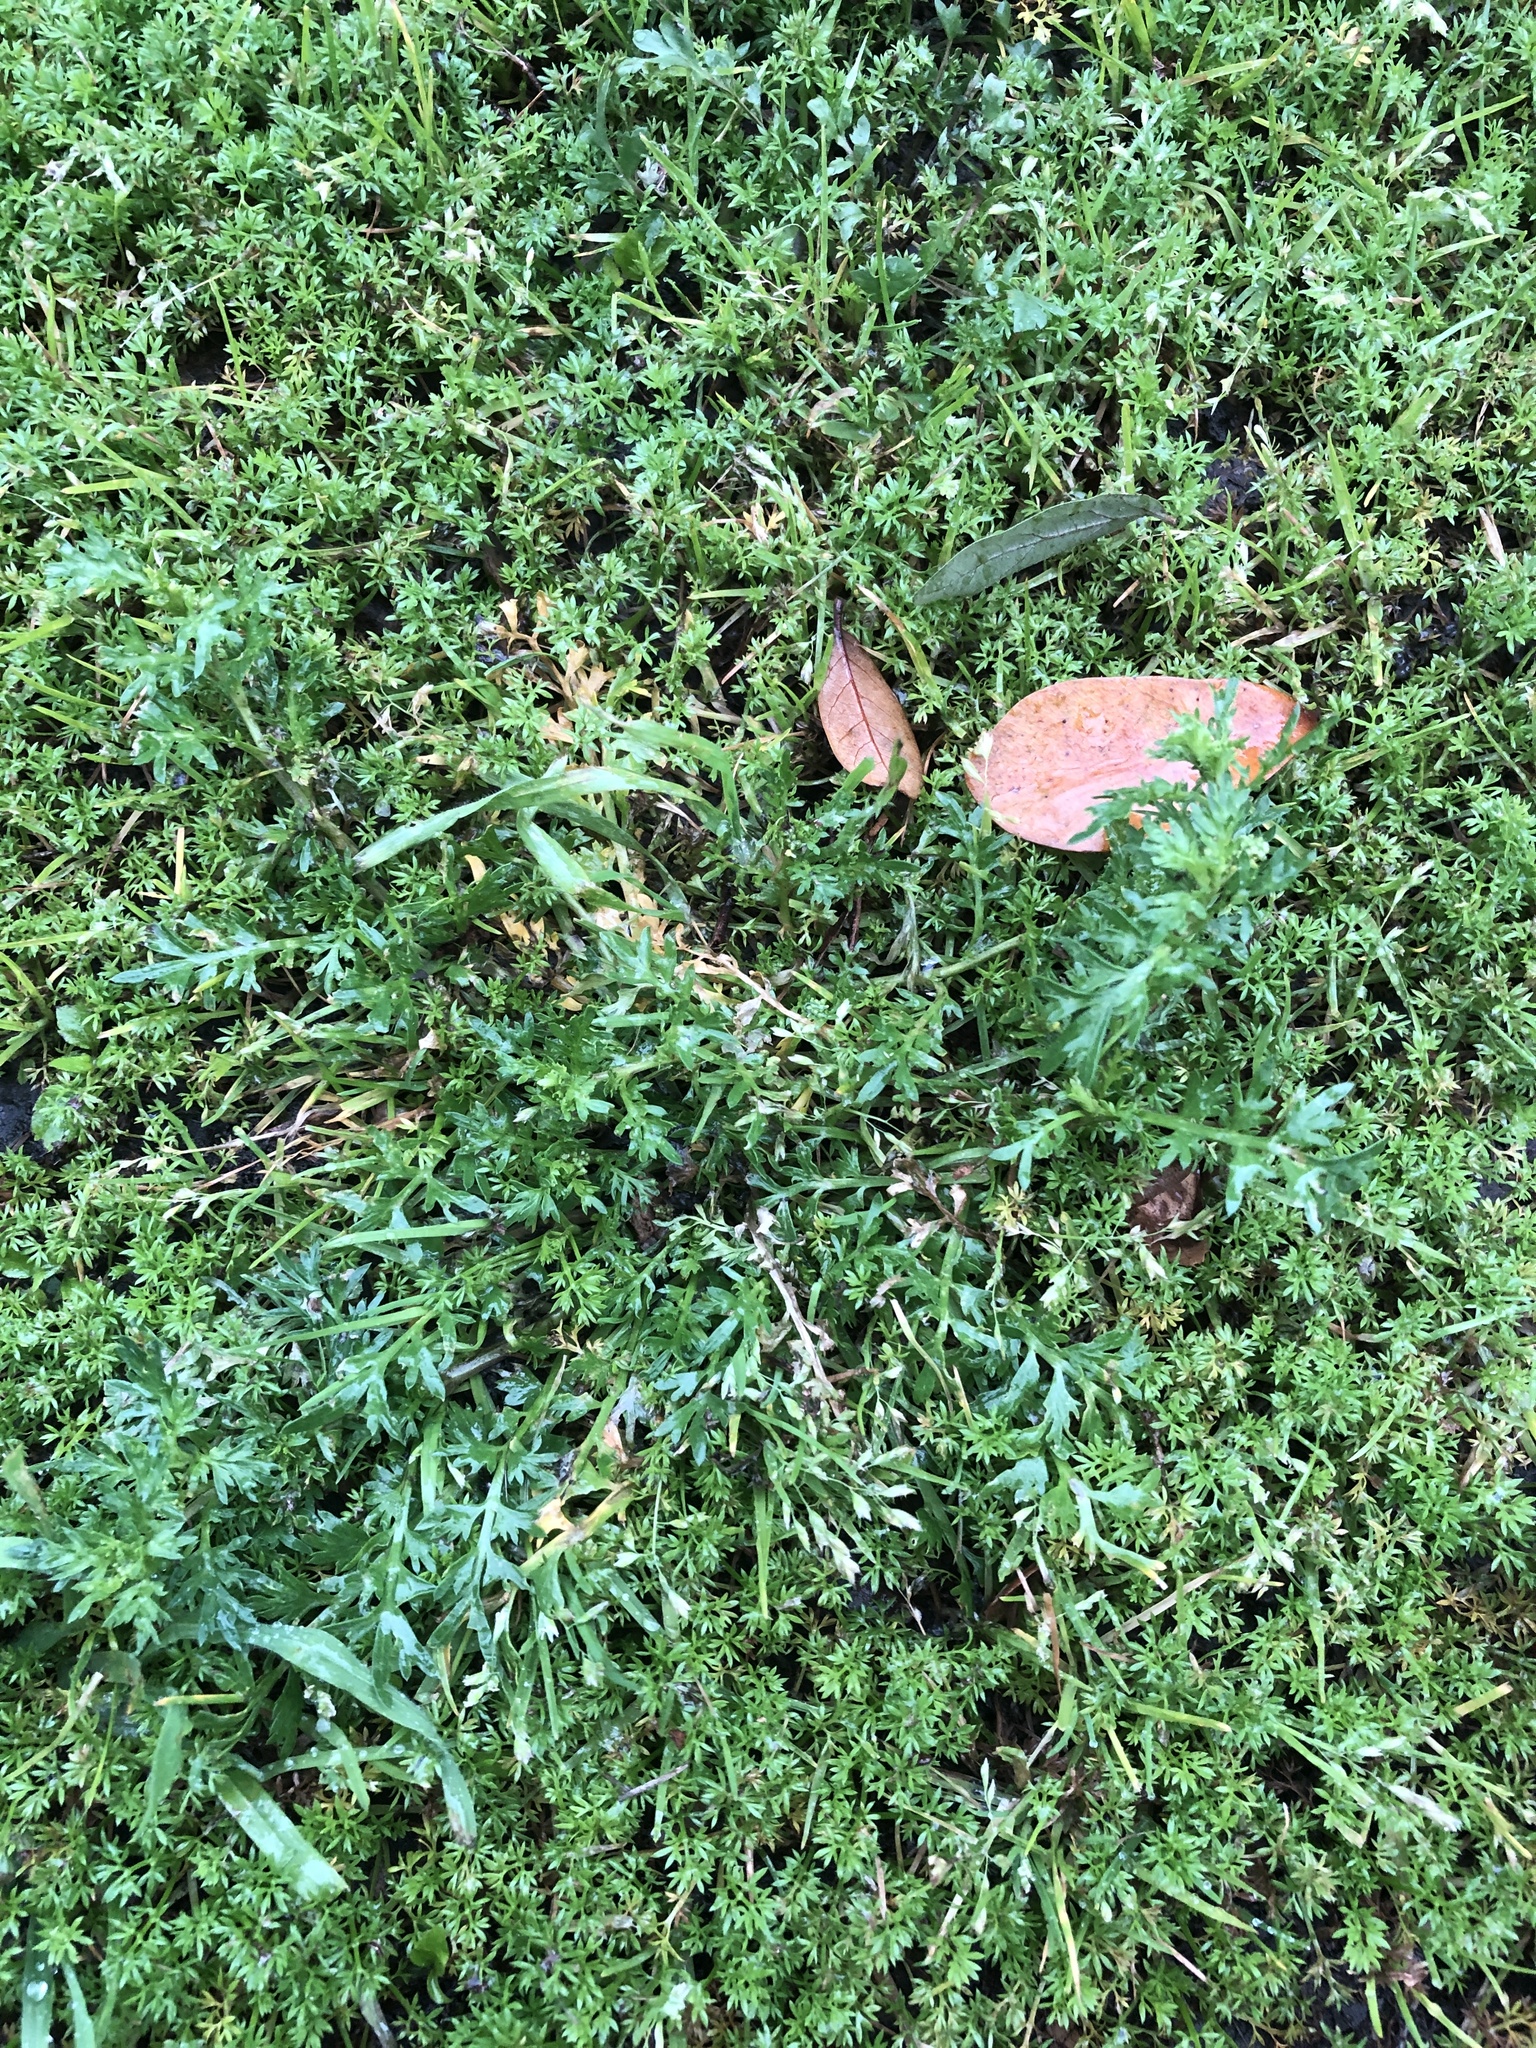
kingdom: Plantae
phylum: Tracheophyta
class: Magnoliopsida
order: Brassicales
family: Brassicaceae
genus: Lepidium
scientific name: Lepidium didymum
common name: Lesser swinecress
